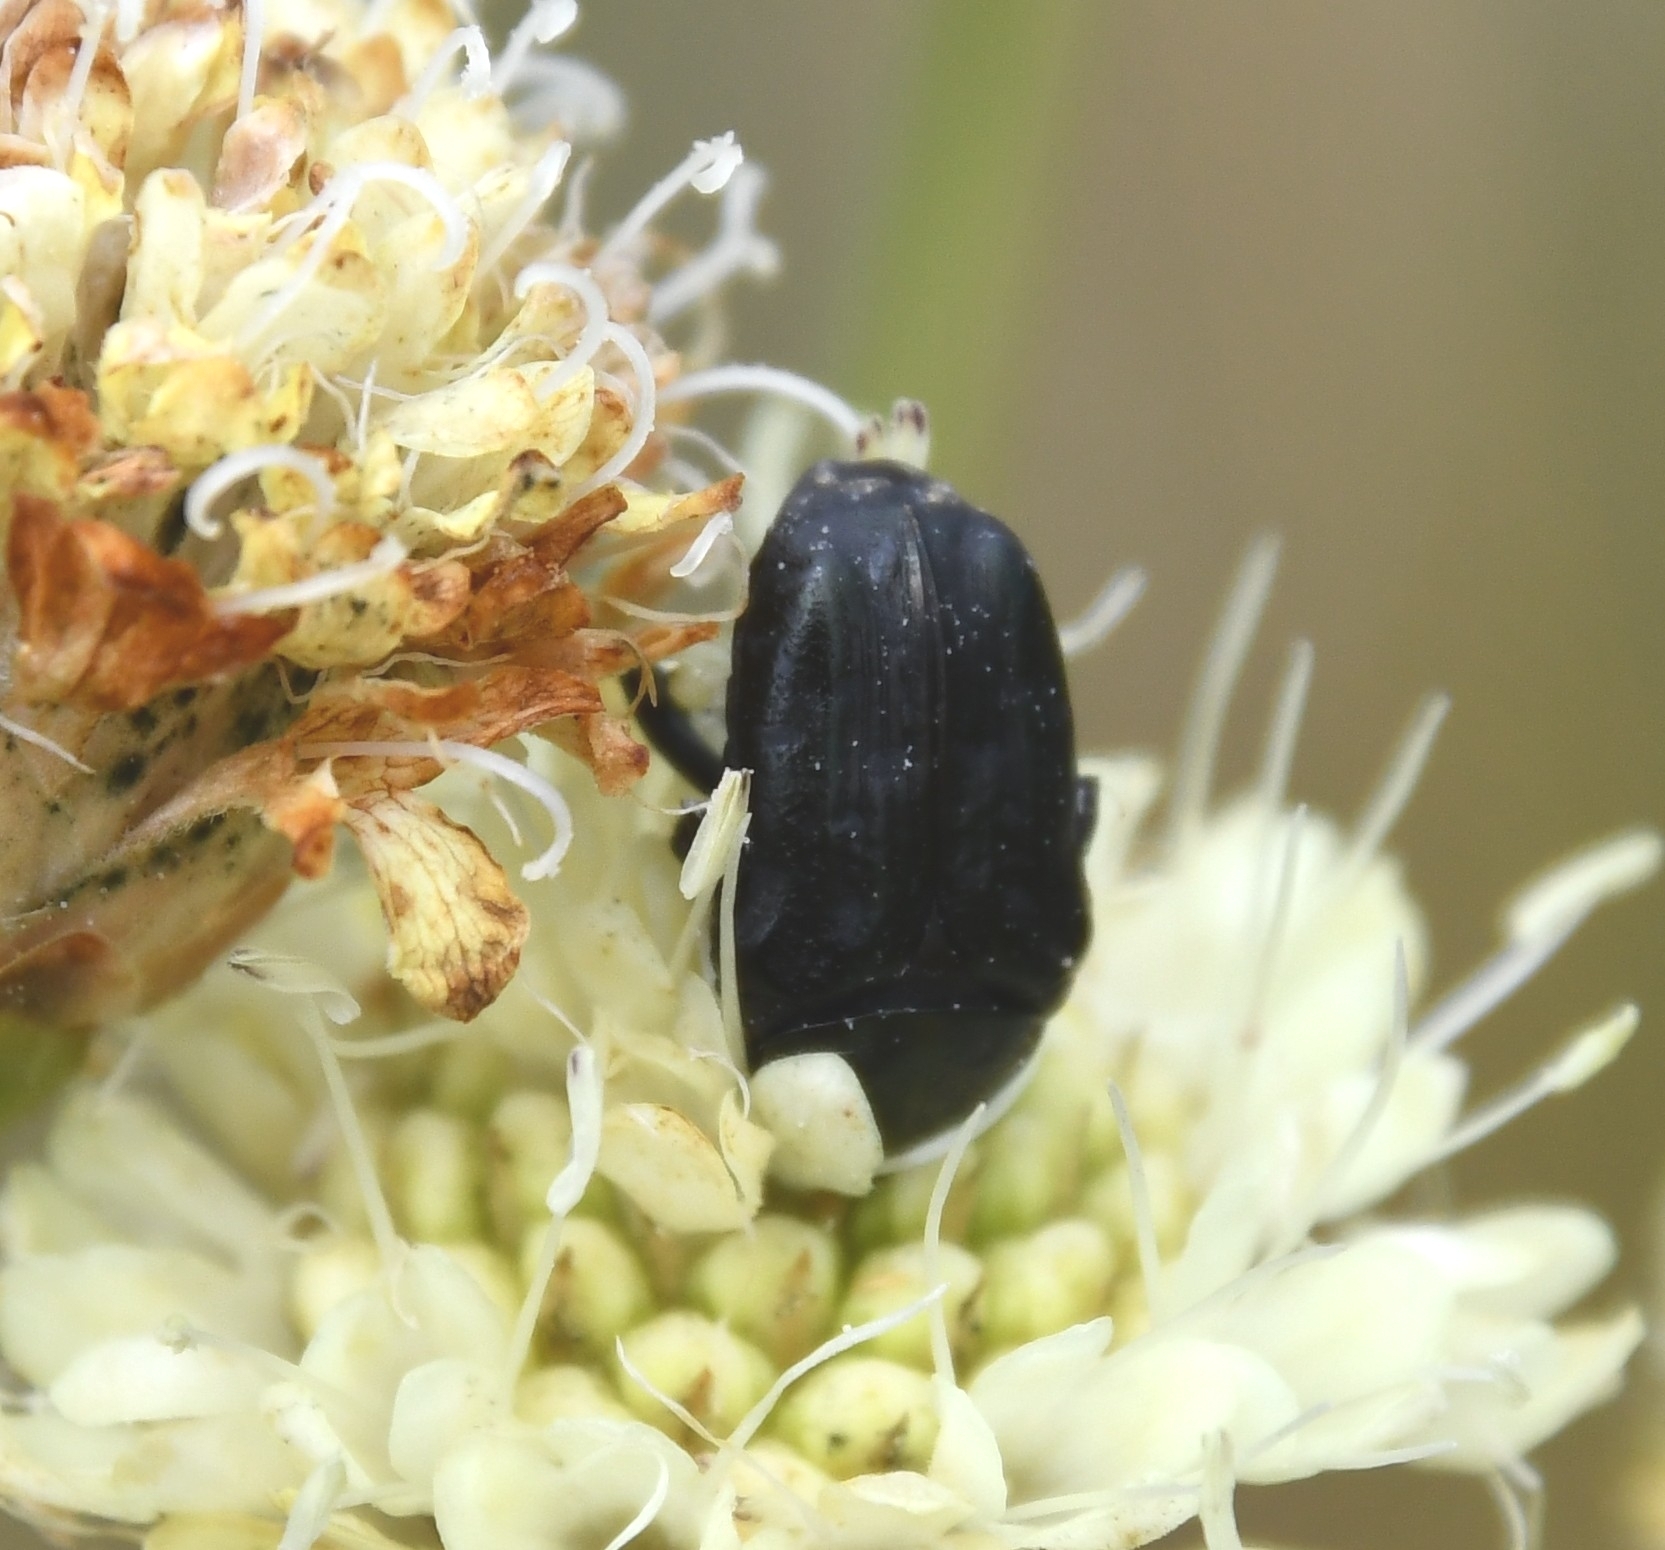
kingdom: Animalia
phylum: Arthropoda
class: Insecta
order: Coleoptera
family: Scarabaeidae
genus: Oxythyrea
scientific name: Oxythyrea funesta
